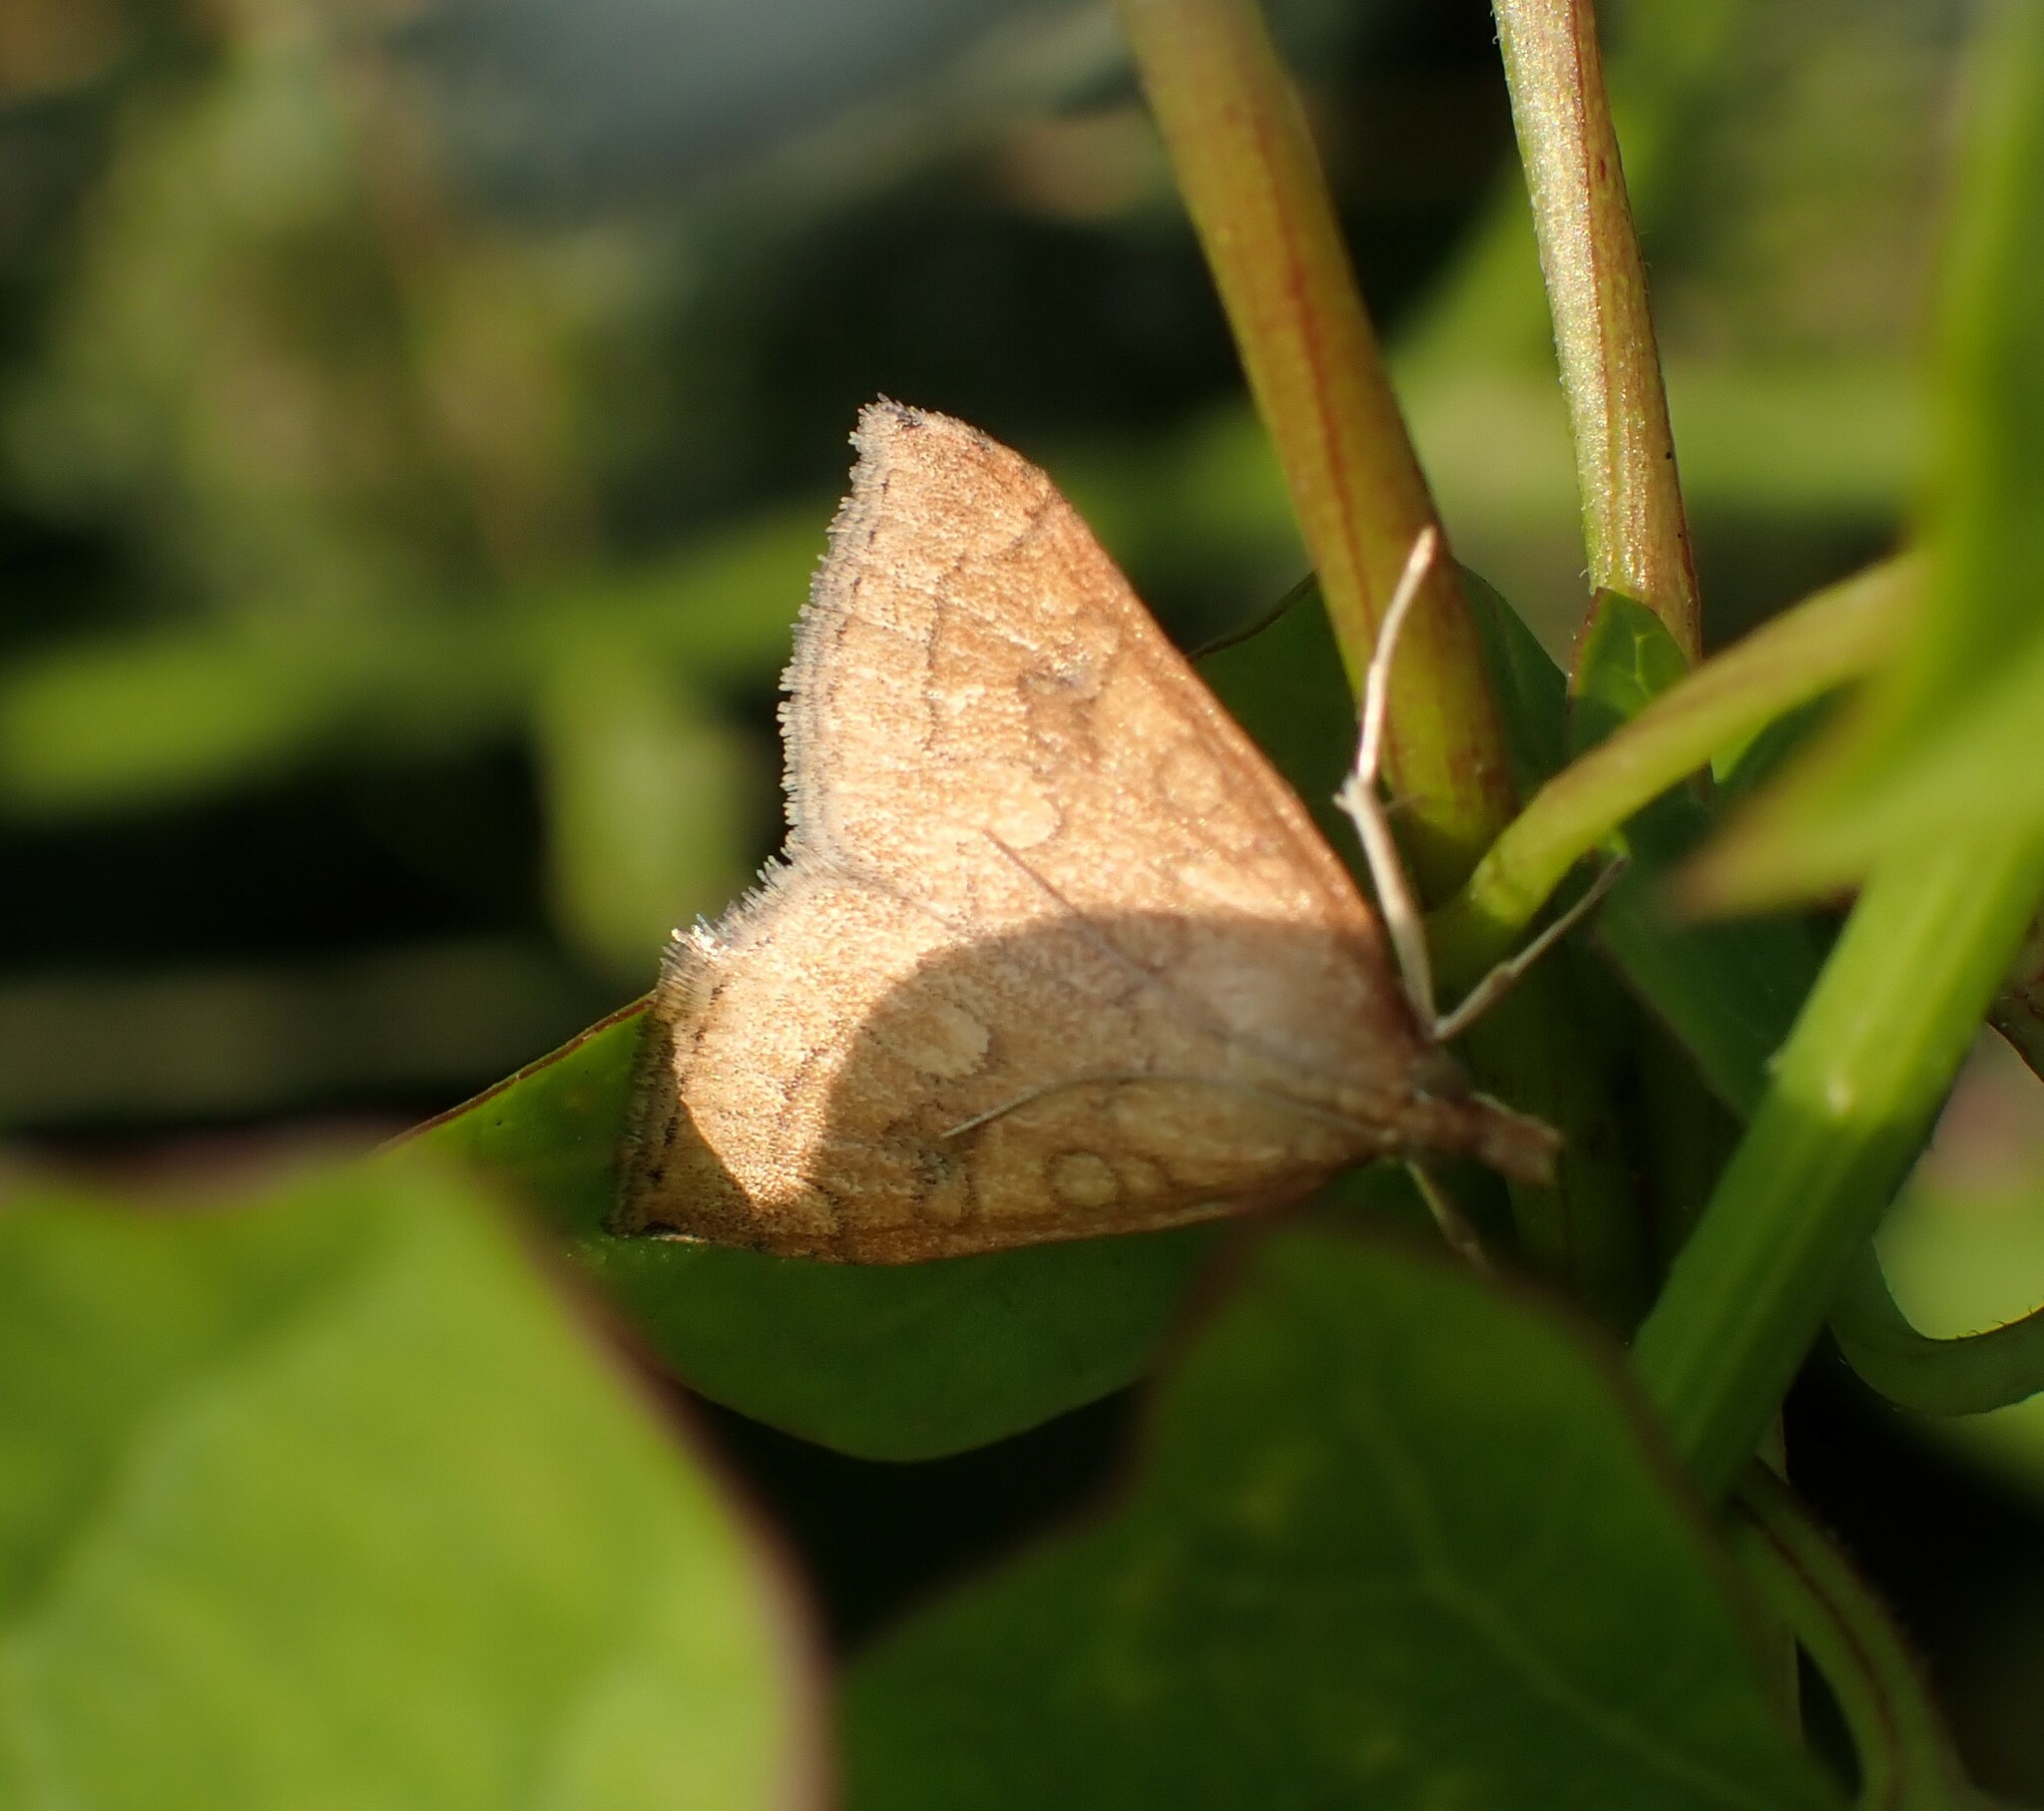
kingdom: Animalia
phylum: Arthropoda
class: Insecta
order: Lepidoptera
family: Crambidae
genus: Udea
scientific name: Udea profundalis
